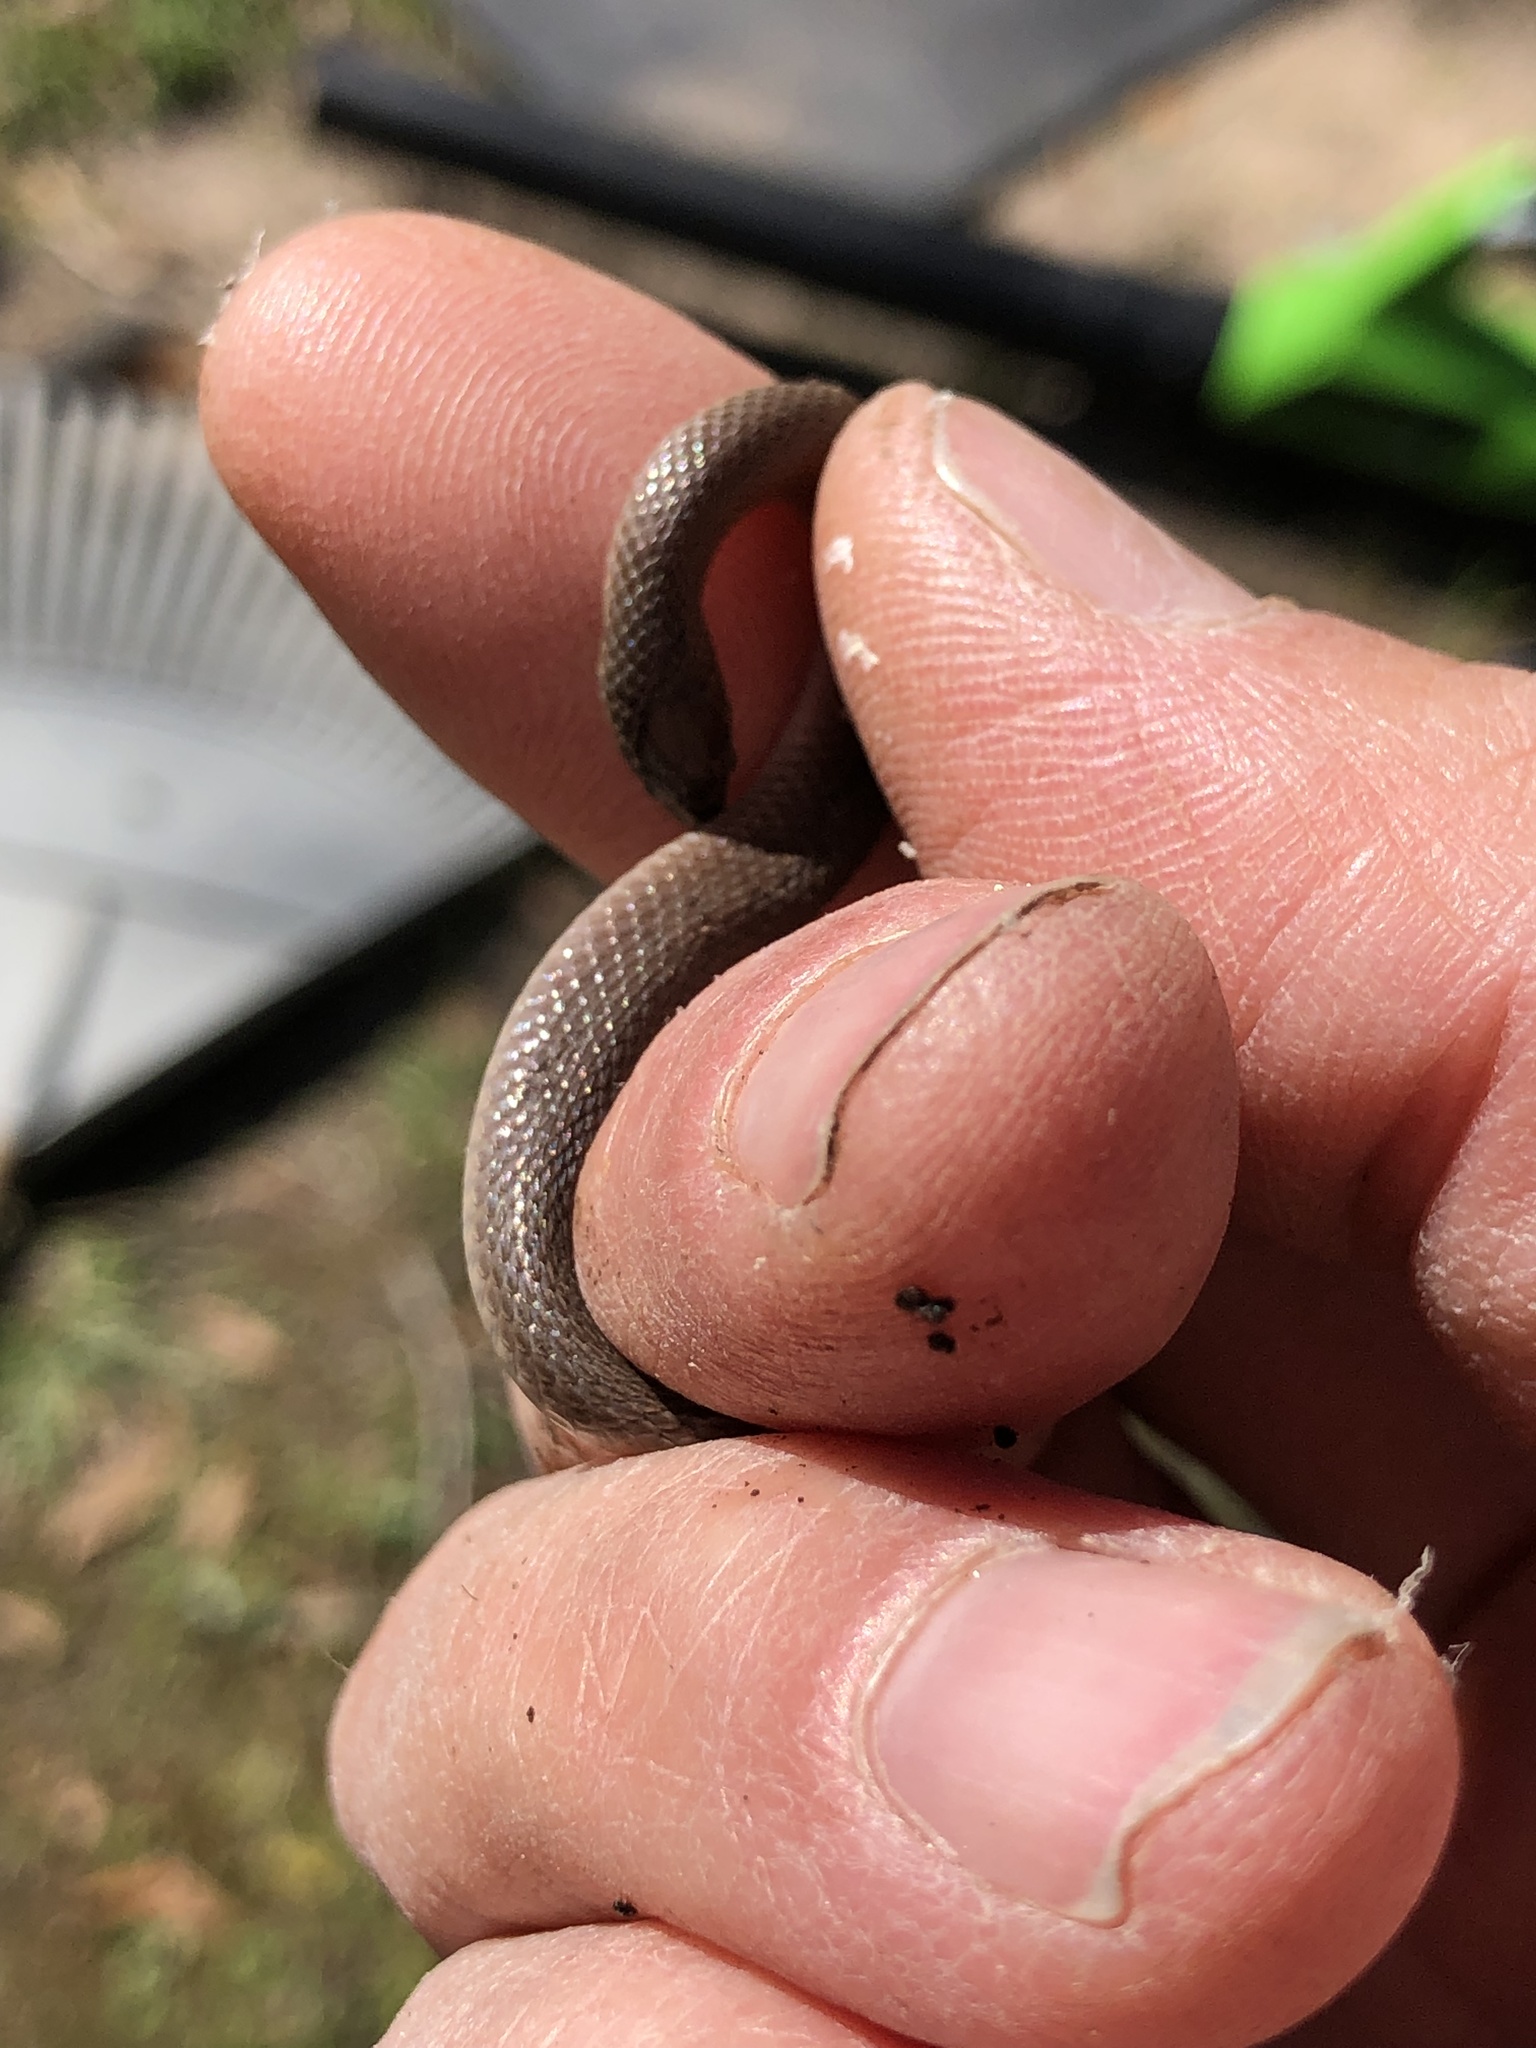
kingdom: Animalia
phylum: Chordata
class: Squamata
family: Colubridae
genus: Haldea
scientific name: Haldea striatula
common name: Rough earth snake
